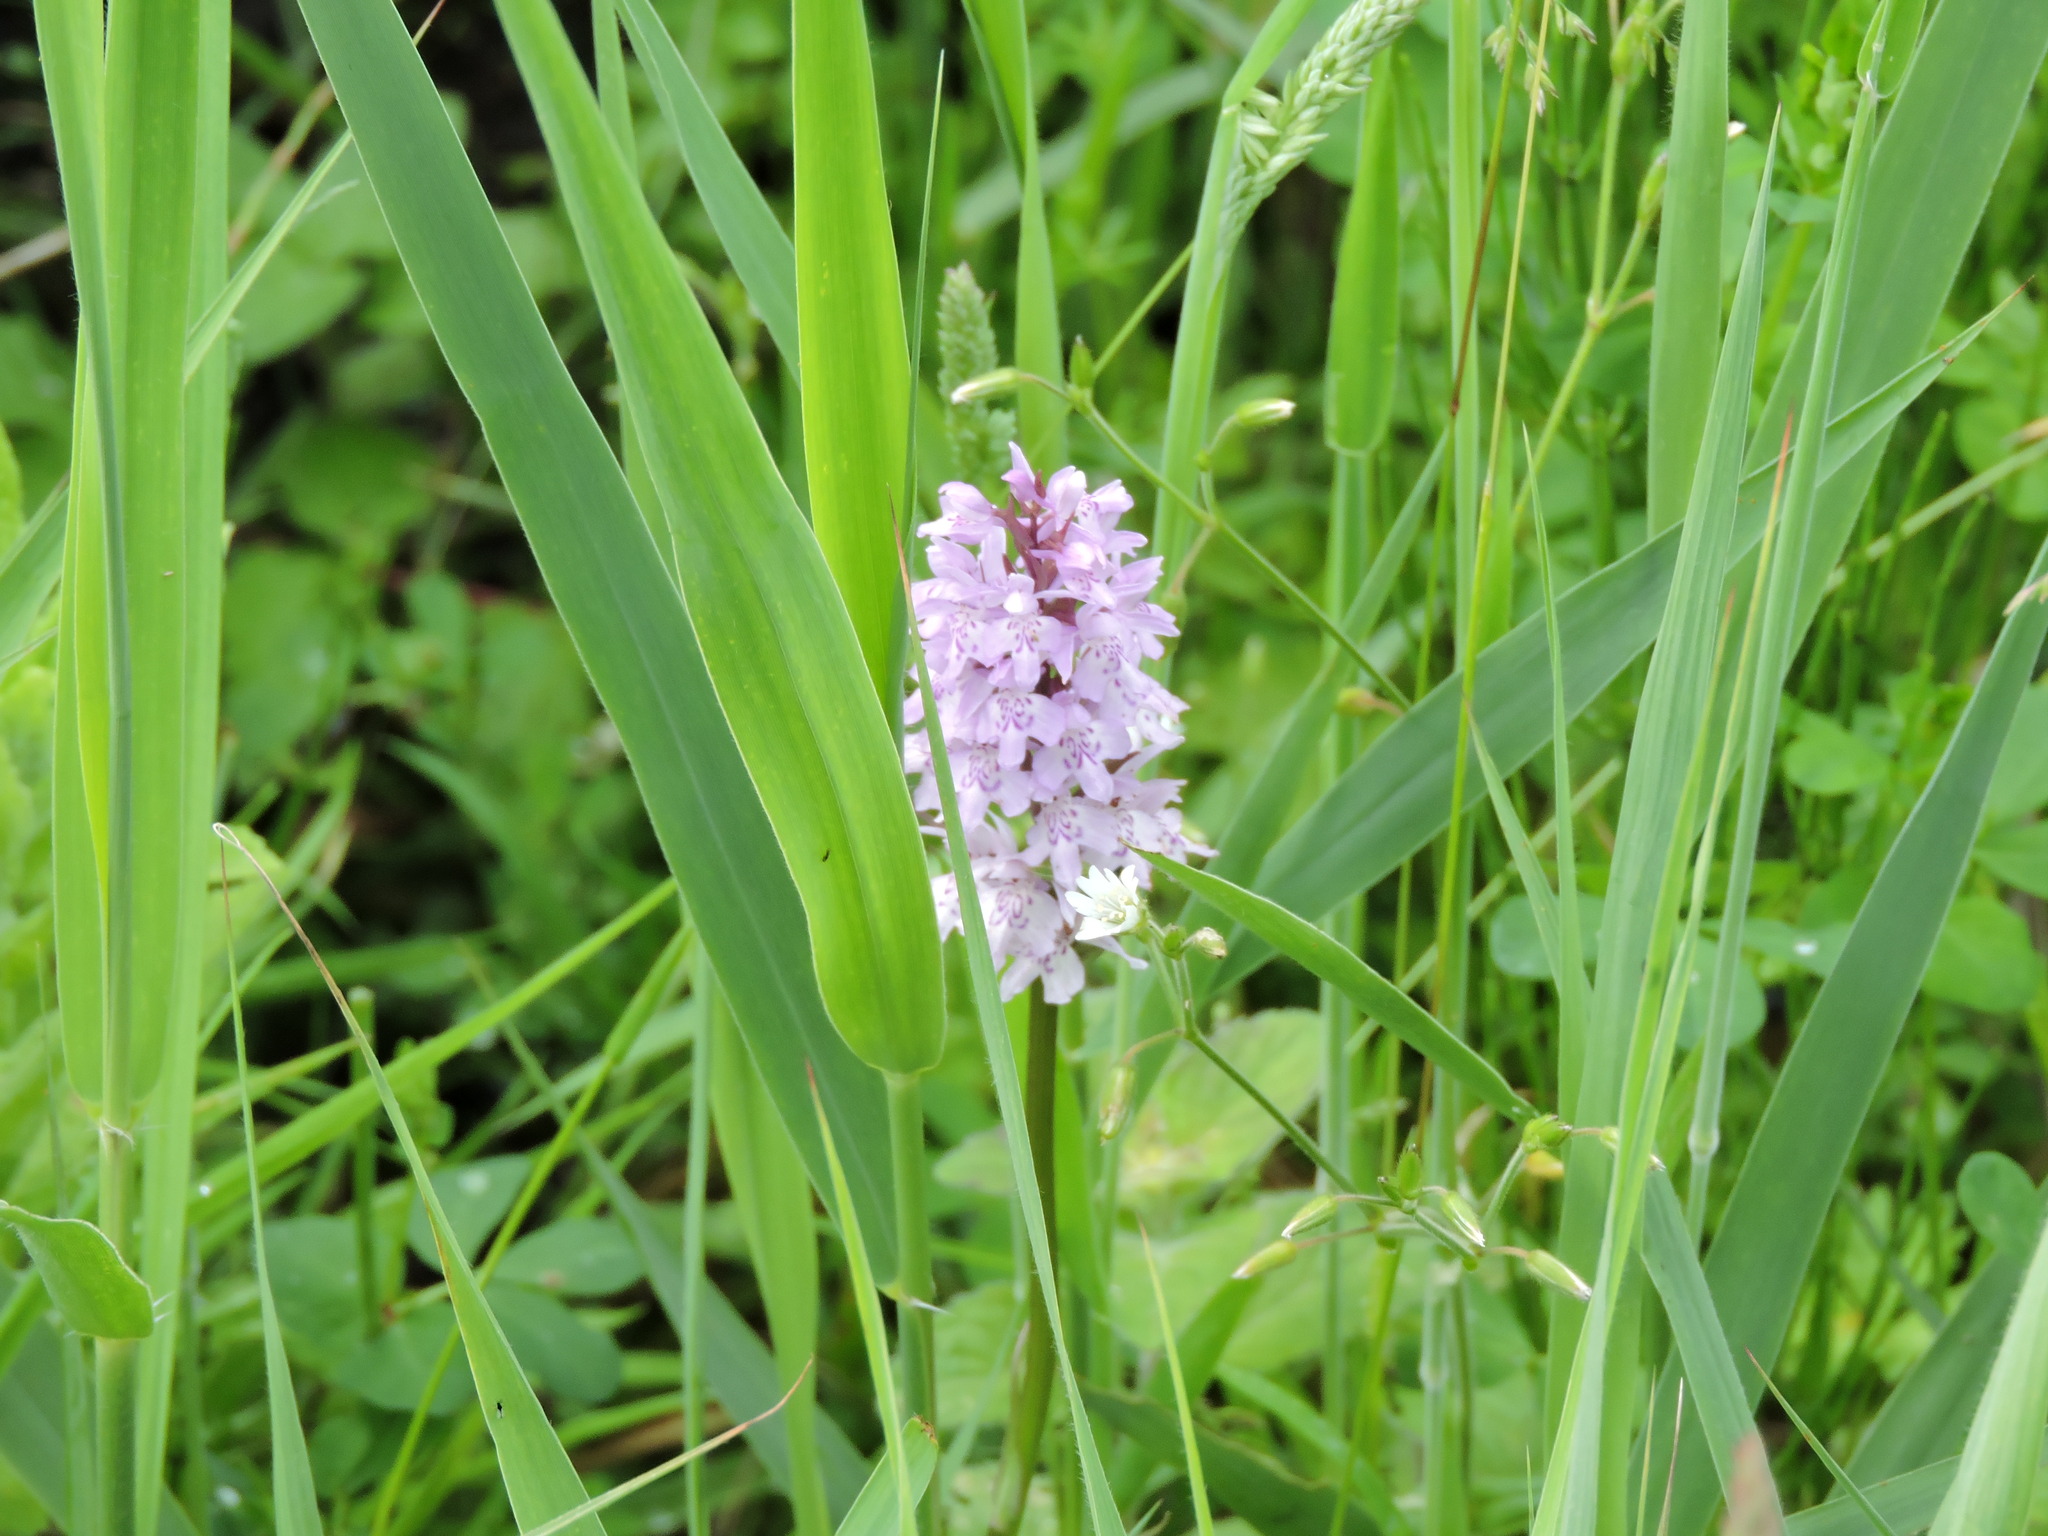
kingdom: Plantae
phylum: Tracheophyta
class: Liliopsida
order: Asparagales
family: Orchidaceae
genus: Dactylorhiza
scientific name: Dactylorhiza maculata
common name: Heath spotted-orchid
